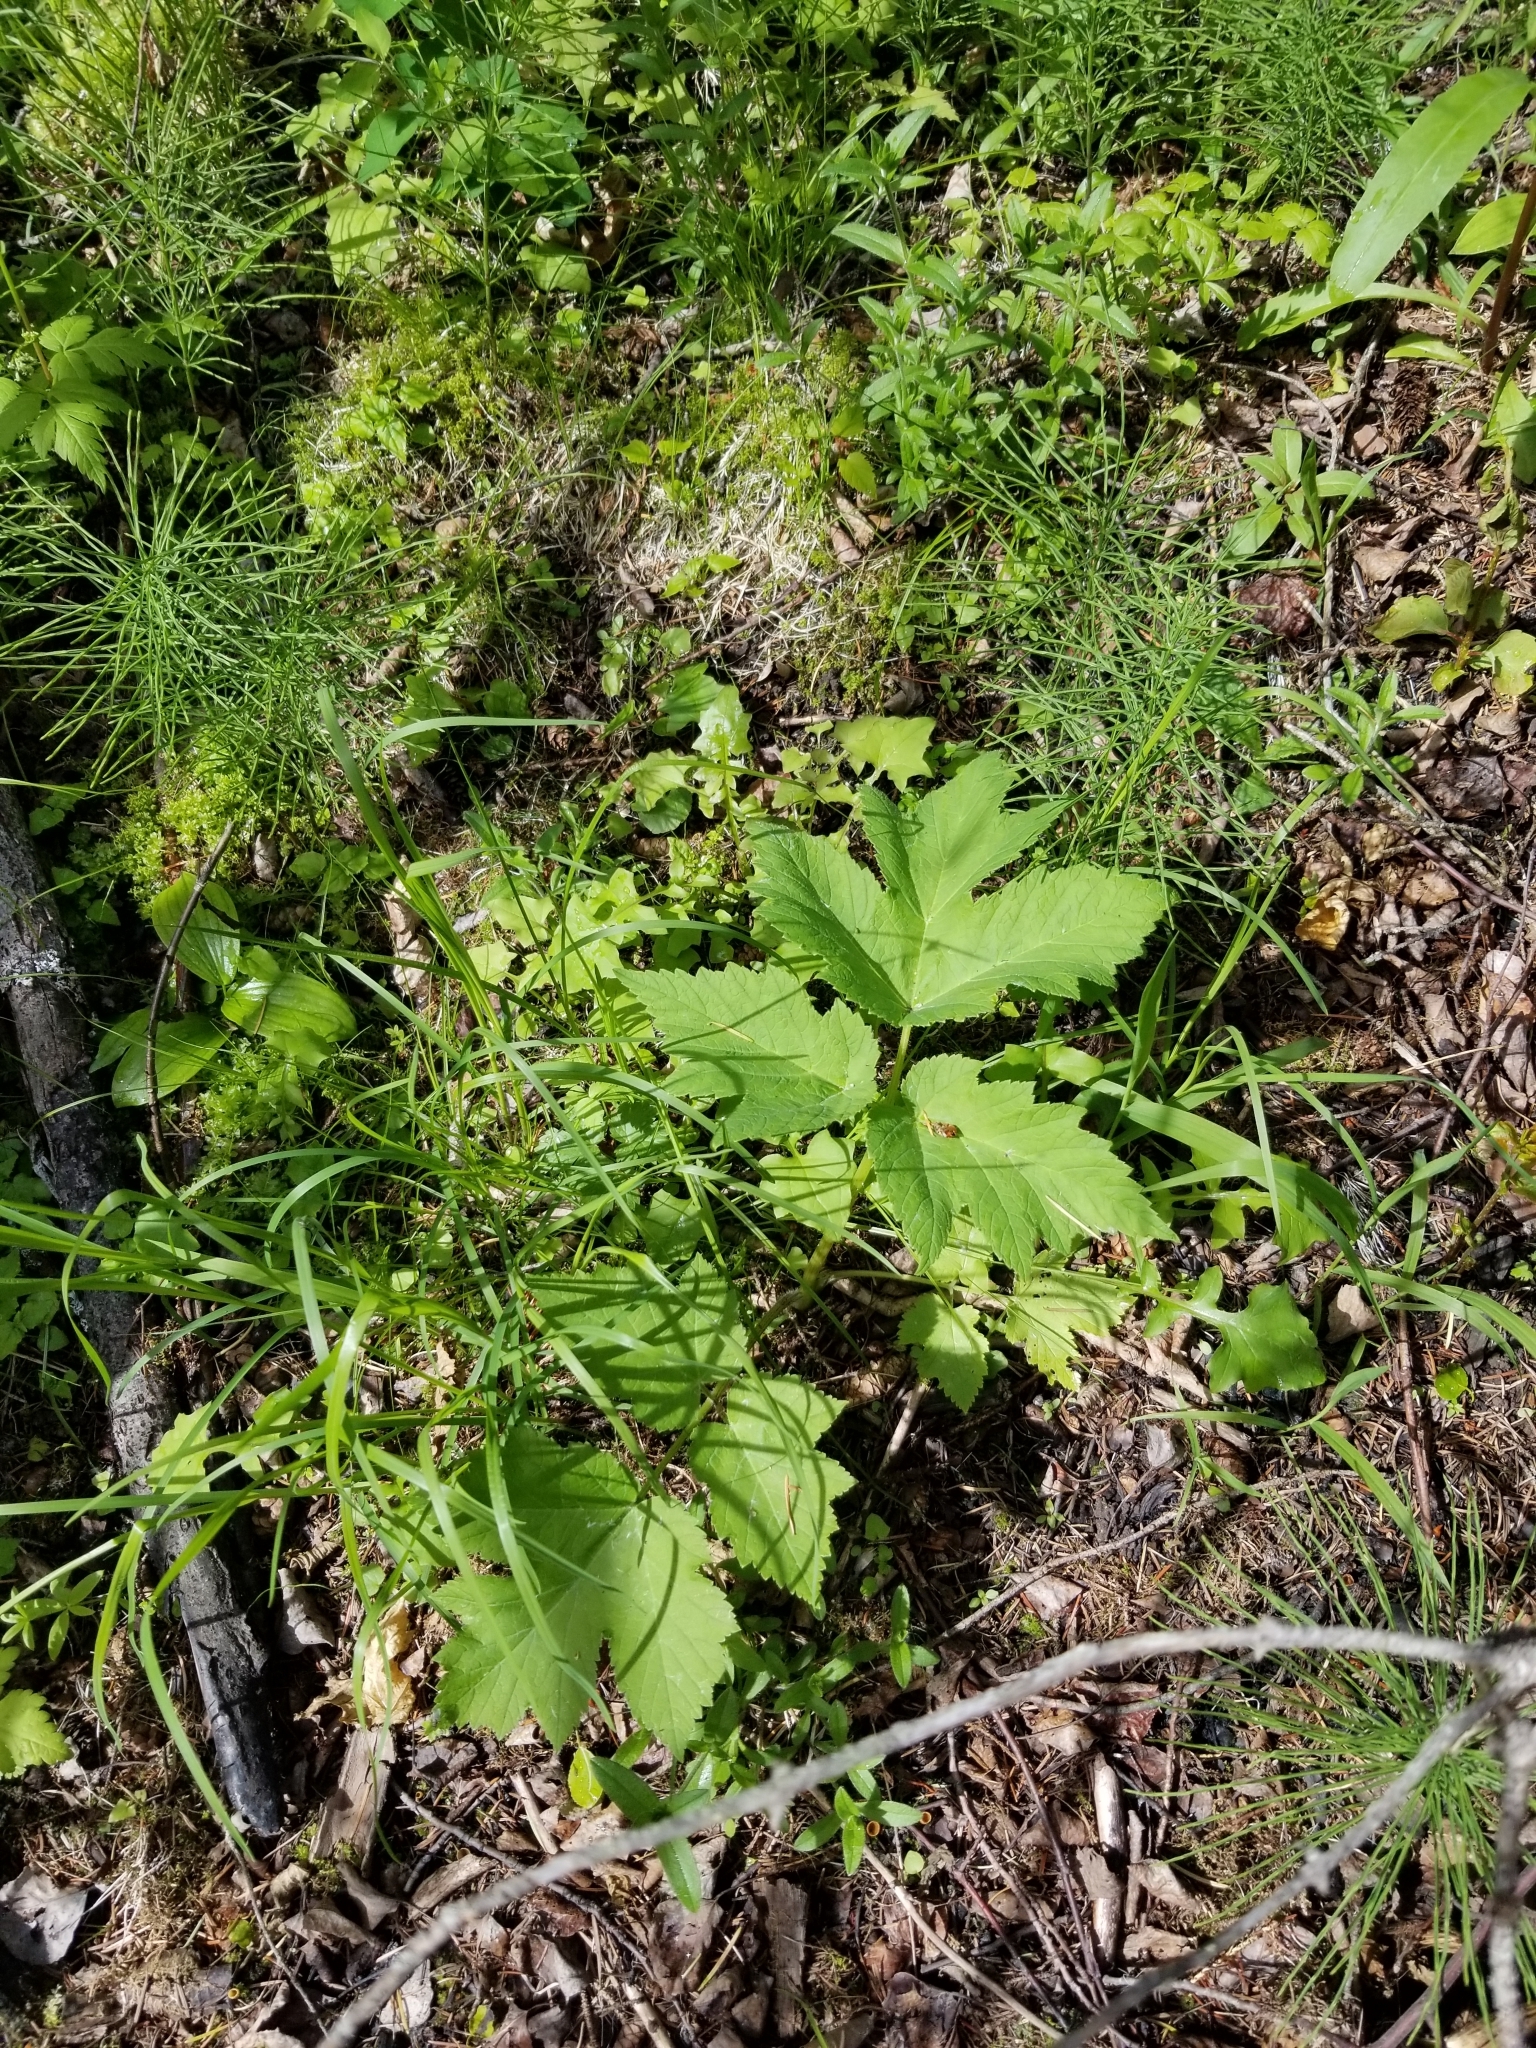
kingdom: Plantae
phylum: Tracheophyta
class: Magnoliopsida
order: Apiales
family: Apiaceae
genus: Heracleum
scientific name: Heracleum maximum
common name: American cow parsnip
